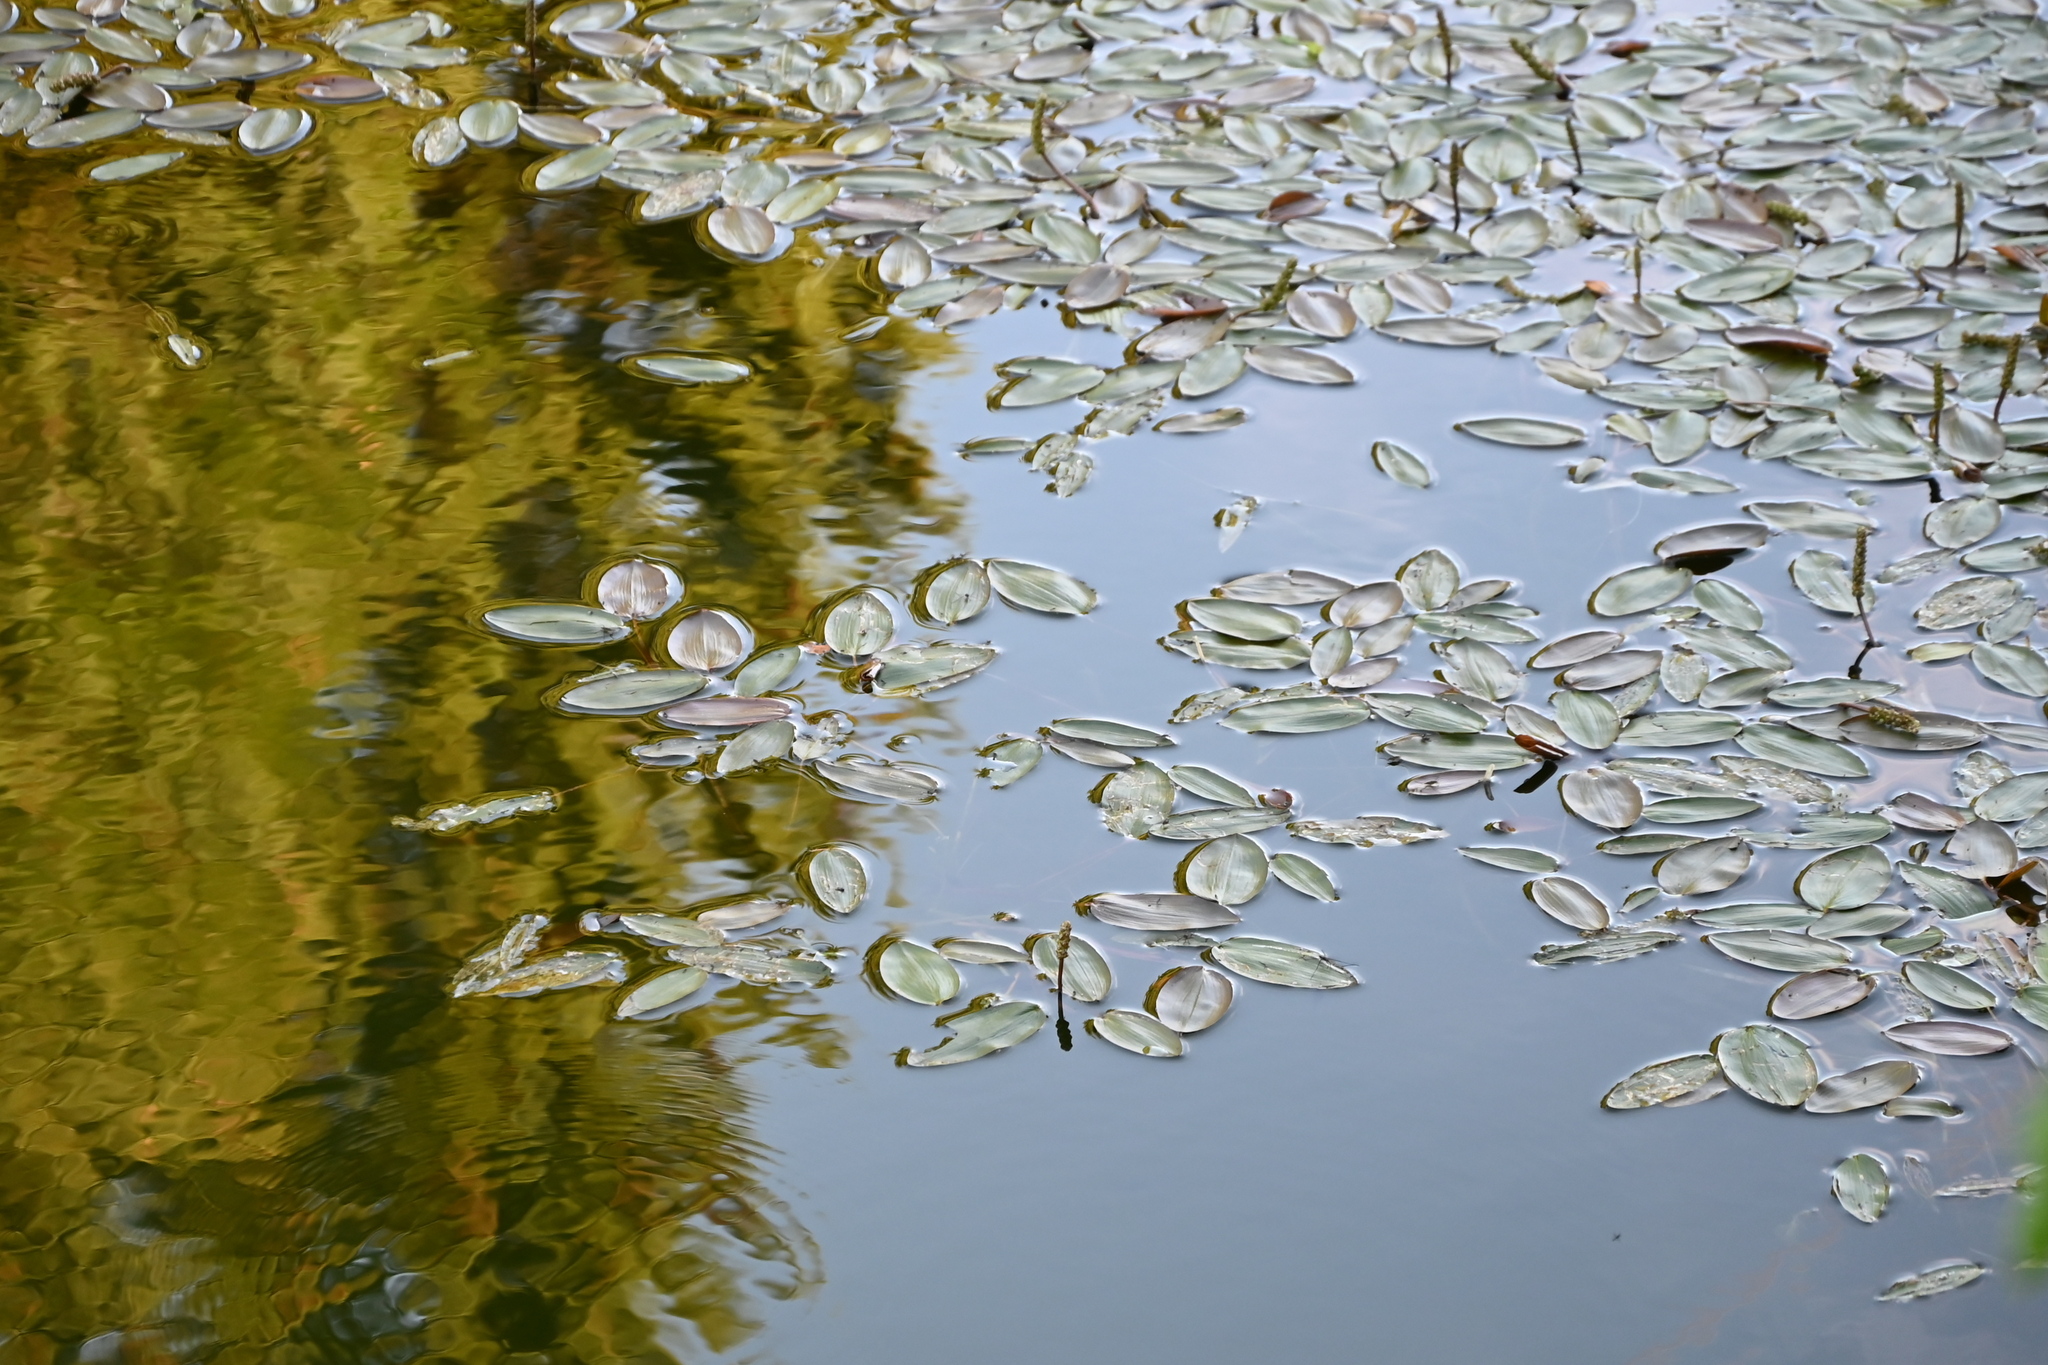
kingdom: Plantae
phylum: Tracheophyta
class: Liliopsida
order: Alismatales
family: Potamogetonaceae
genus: Potamogeton
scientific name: Potamogeton natans
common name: Broad-leaved pondweed
